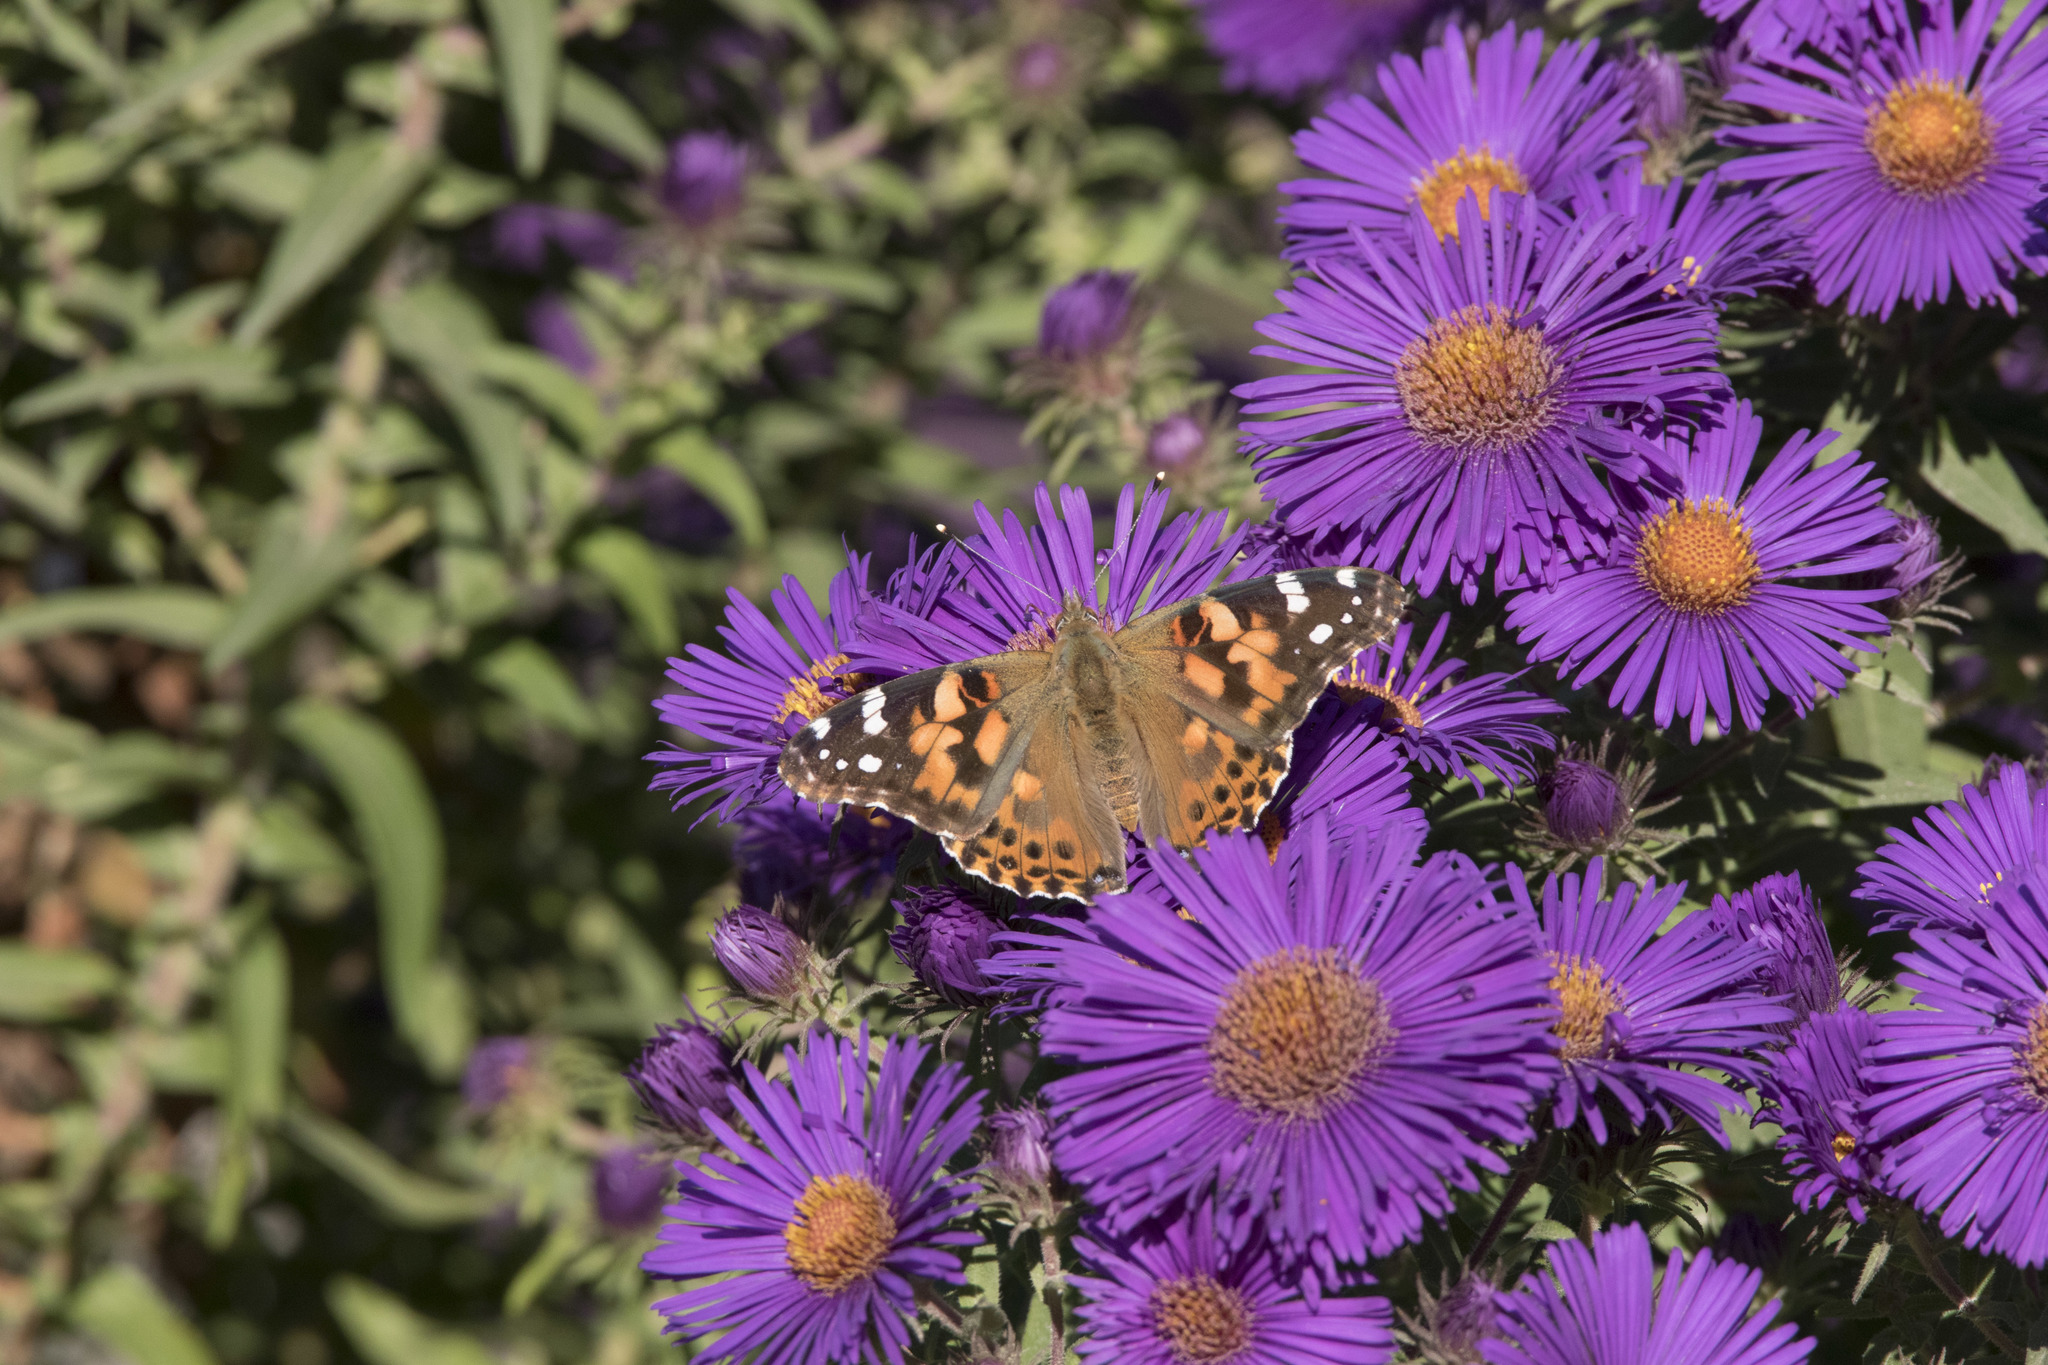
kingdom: Animalia
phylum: Arthropoda
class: Insecta
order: Lepidoptera
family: Nymphalidae
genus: Vanessa
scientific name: Vanessa cardui
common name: Painted lady
